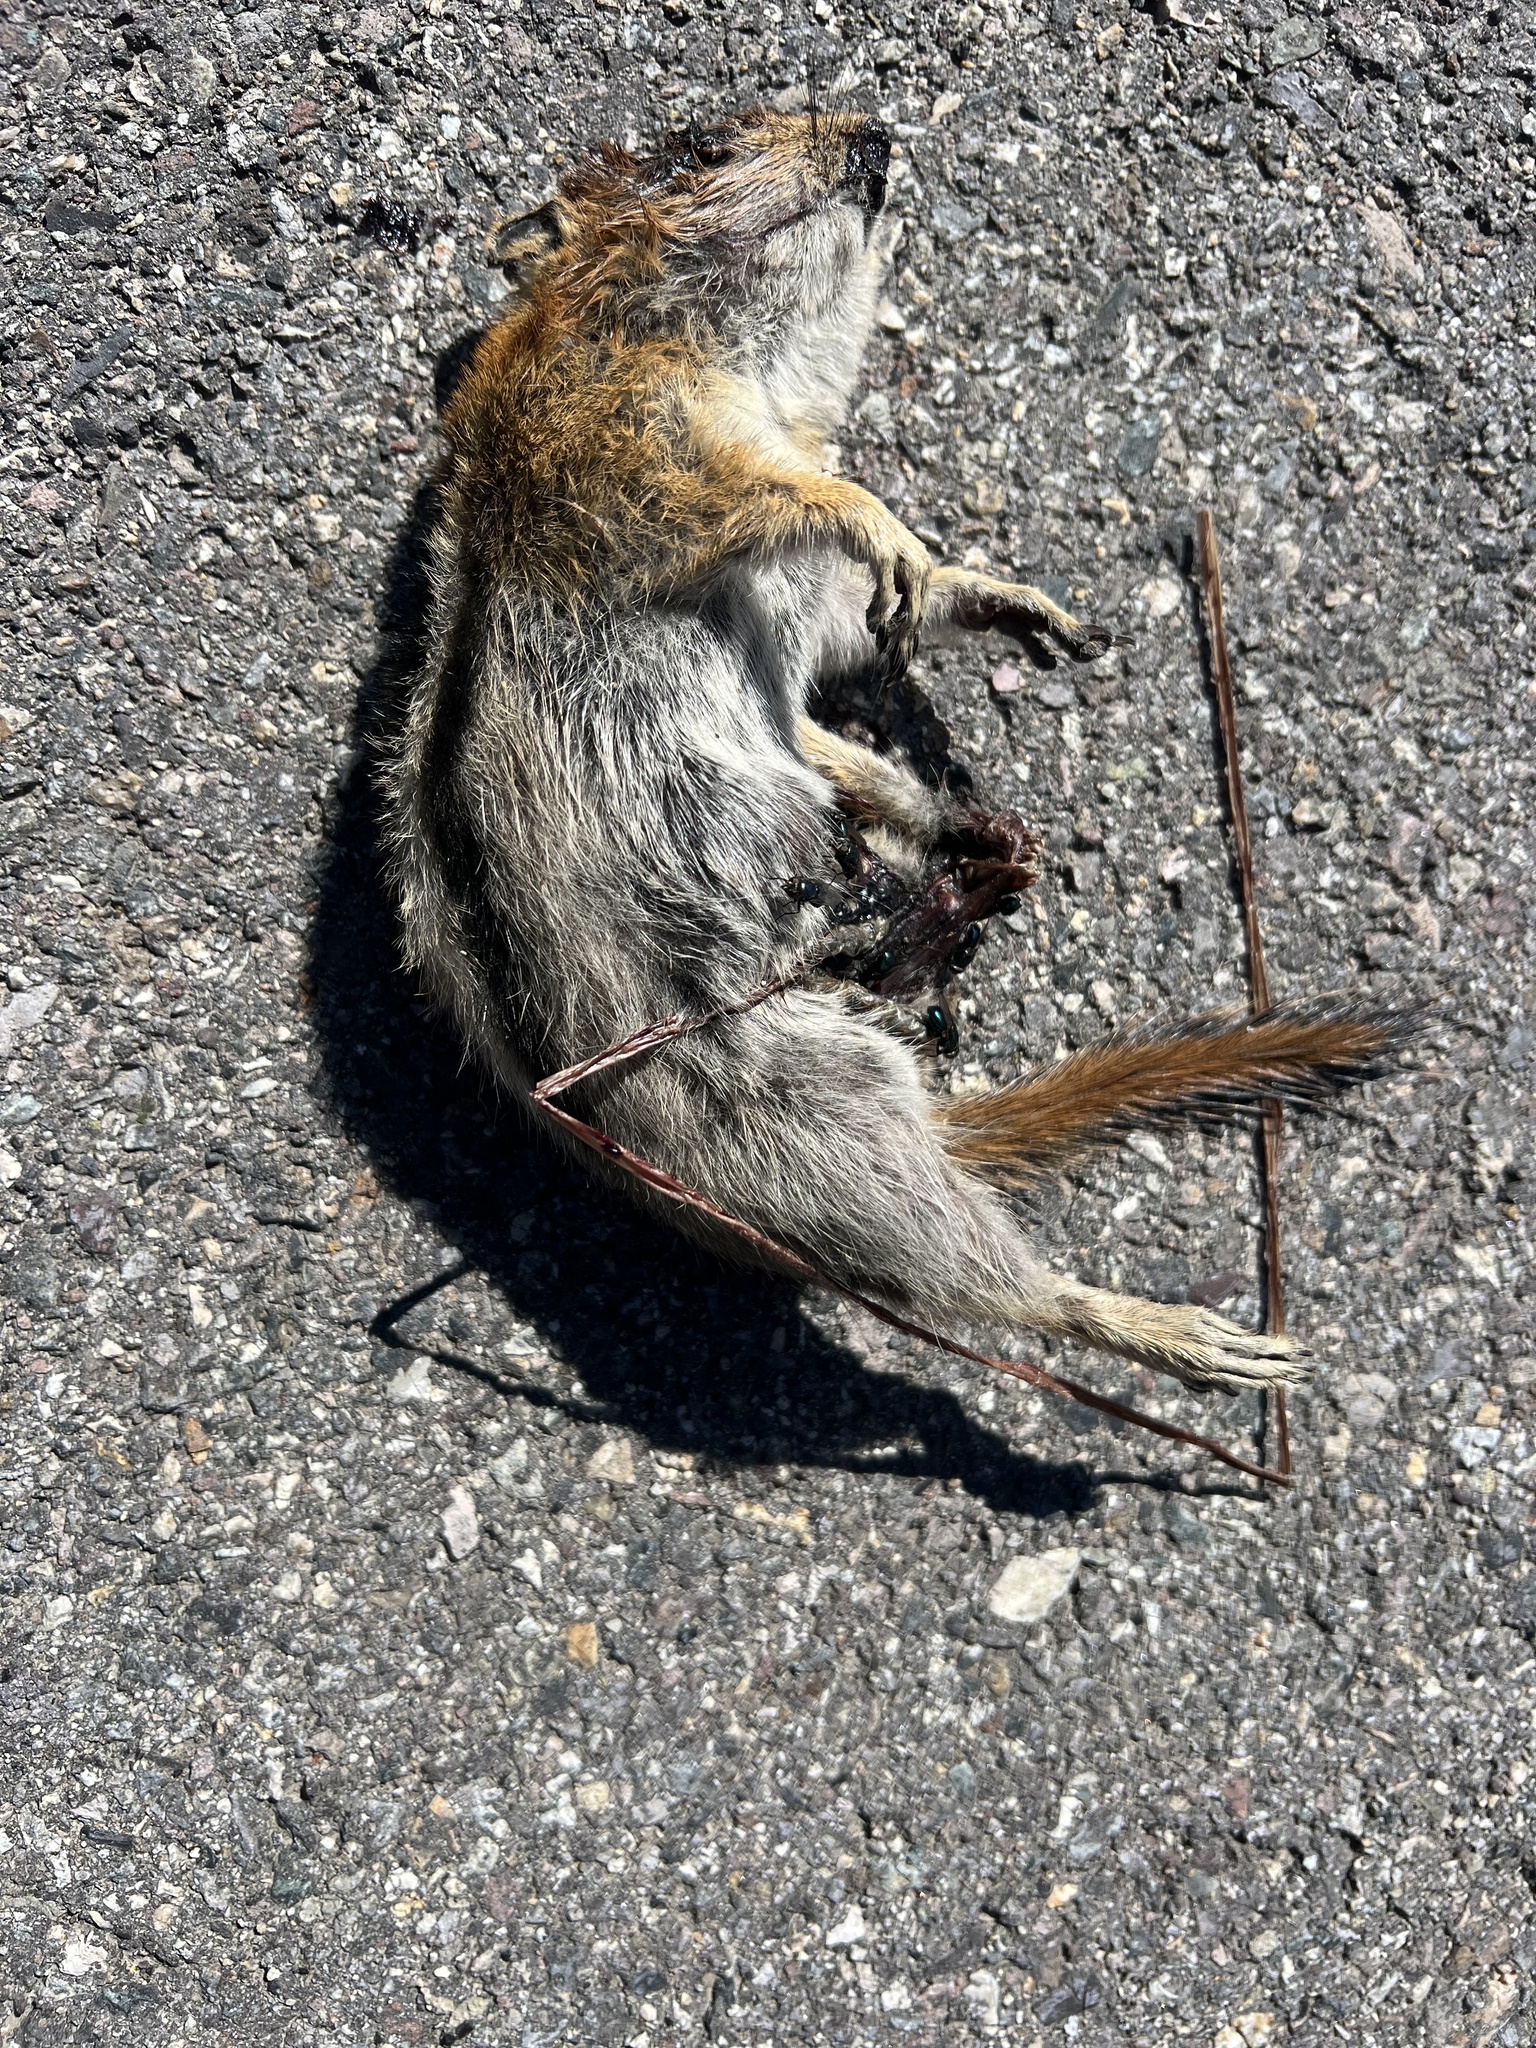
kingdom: Animalia
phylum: Chordata
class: Mammalia
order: Rodentia
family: Sciuridae
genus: Callospermophilus
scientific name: Callospermophilus lateralis
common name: Golden-mantled ground squirrel
